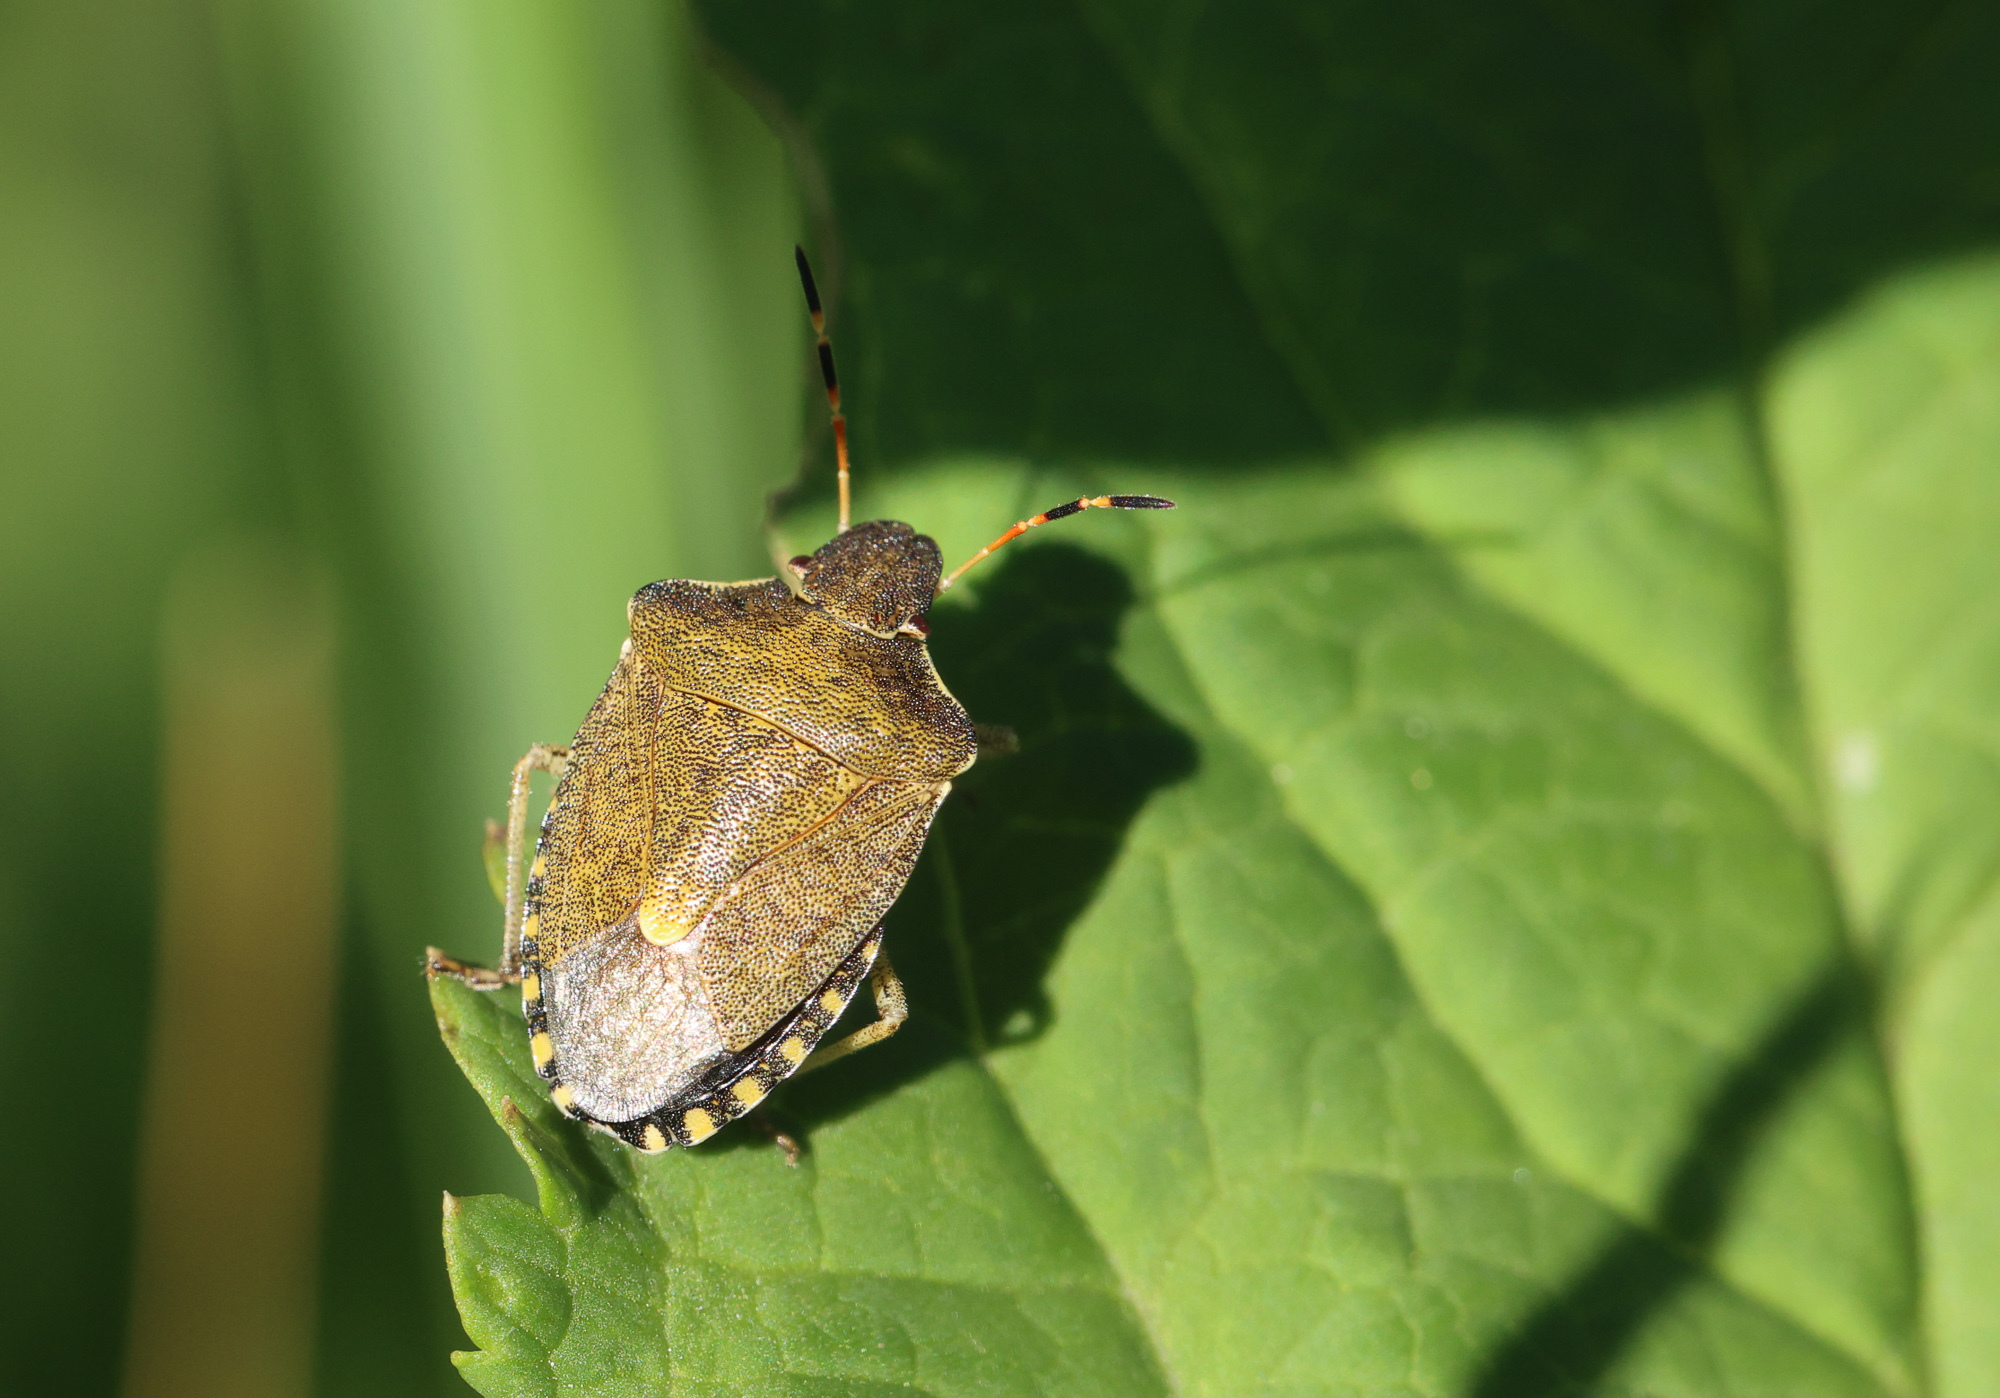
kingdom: Animalia
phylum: Arthropoda
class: Insecta
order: Hemiptera
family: Pentatomidae
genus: Holcostethus
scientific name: Holcostethus strictus
